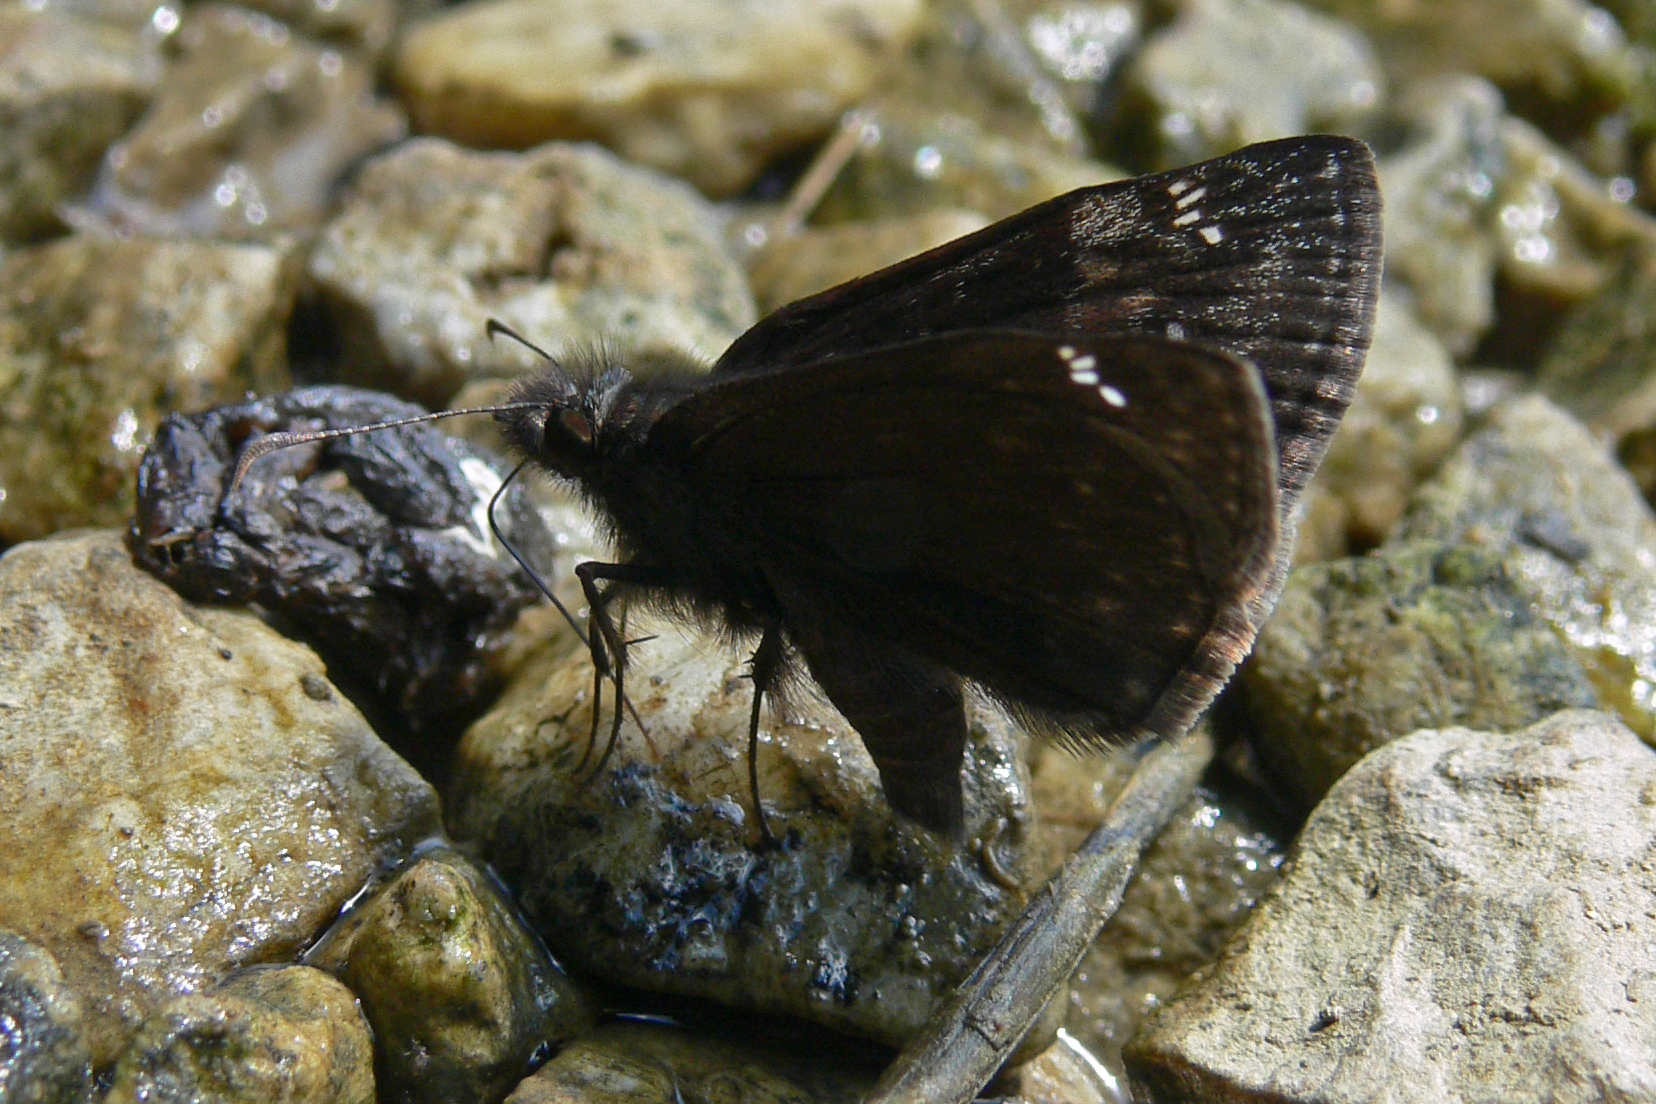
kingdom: Animalia
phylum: Arthropoda
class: Insecta
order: Lepidoptera
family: Hesperiidae
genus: Erynnis
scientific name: Erynnis baptisiae
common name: Wild indigo duskywing
